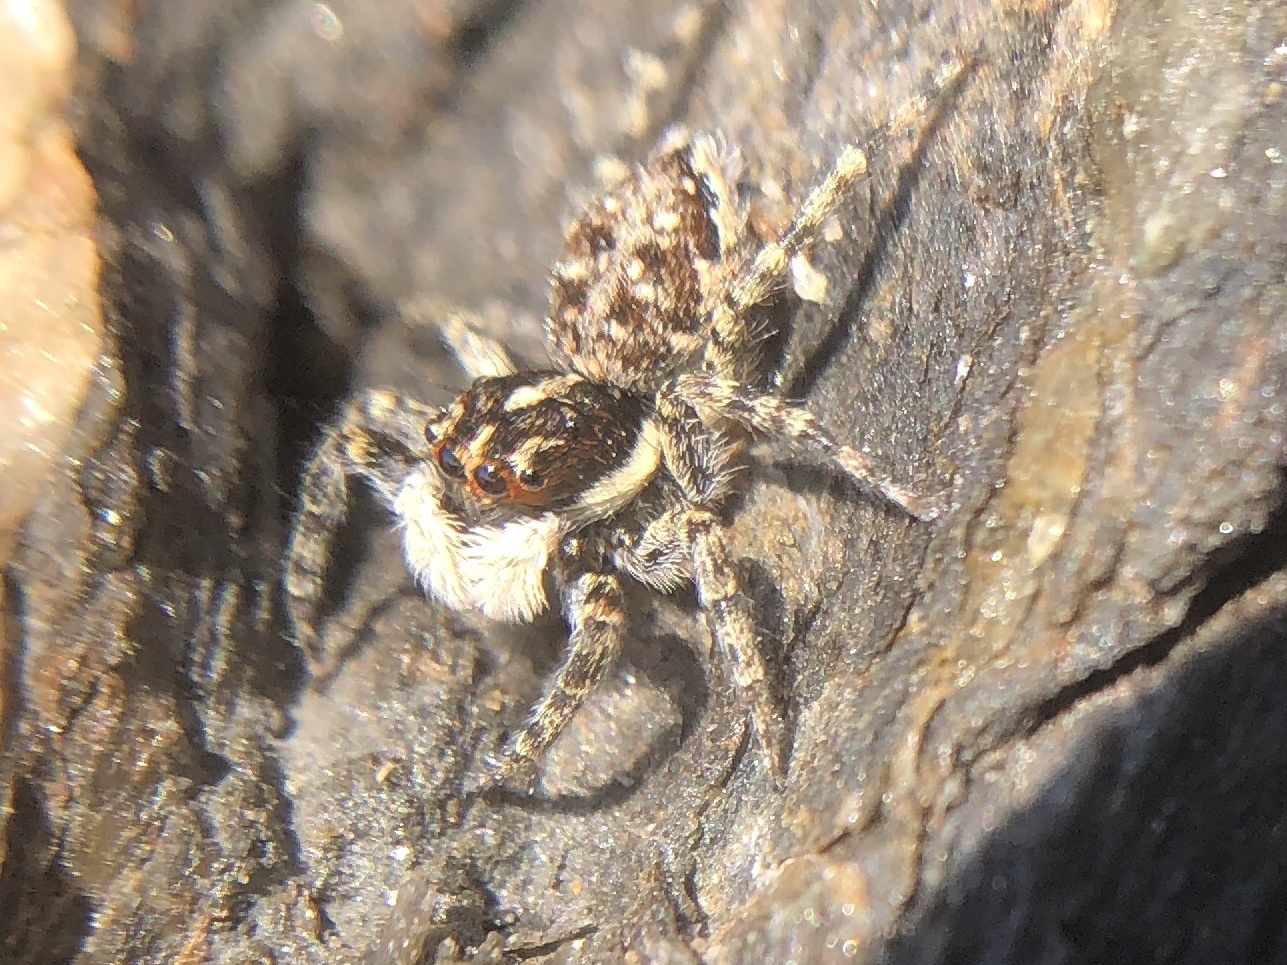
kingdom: Animalia
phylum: Arthropoda
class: Arachnida
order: Araneae
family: Salticidae
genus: Menemerus
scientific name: Menemerus semilimbatus
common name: Jumping spider
